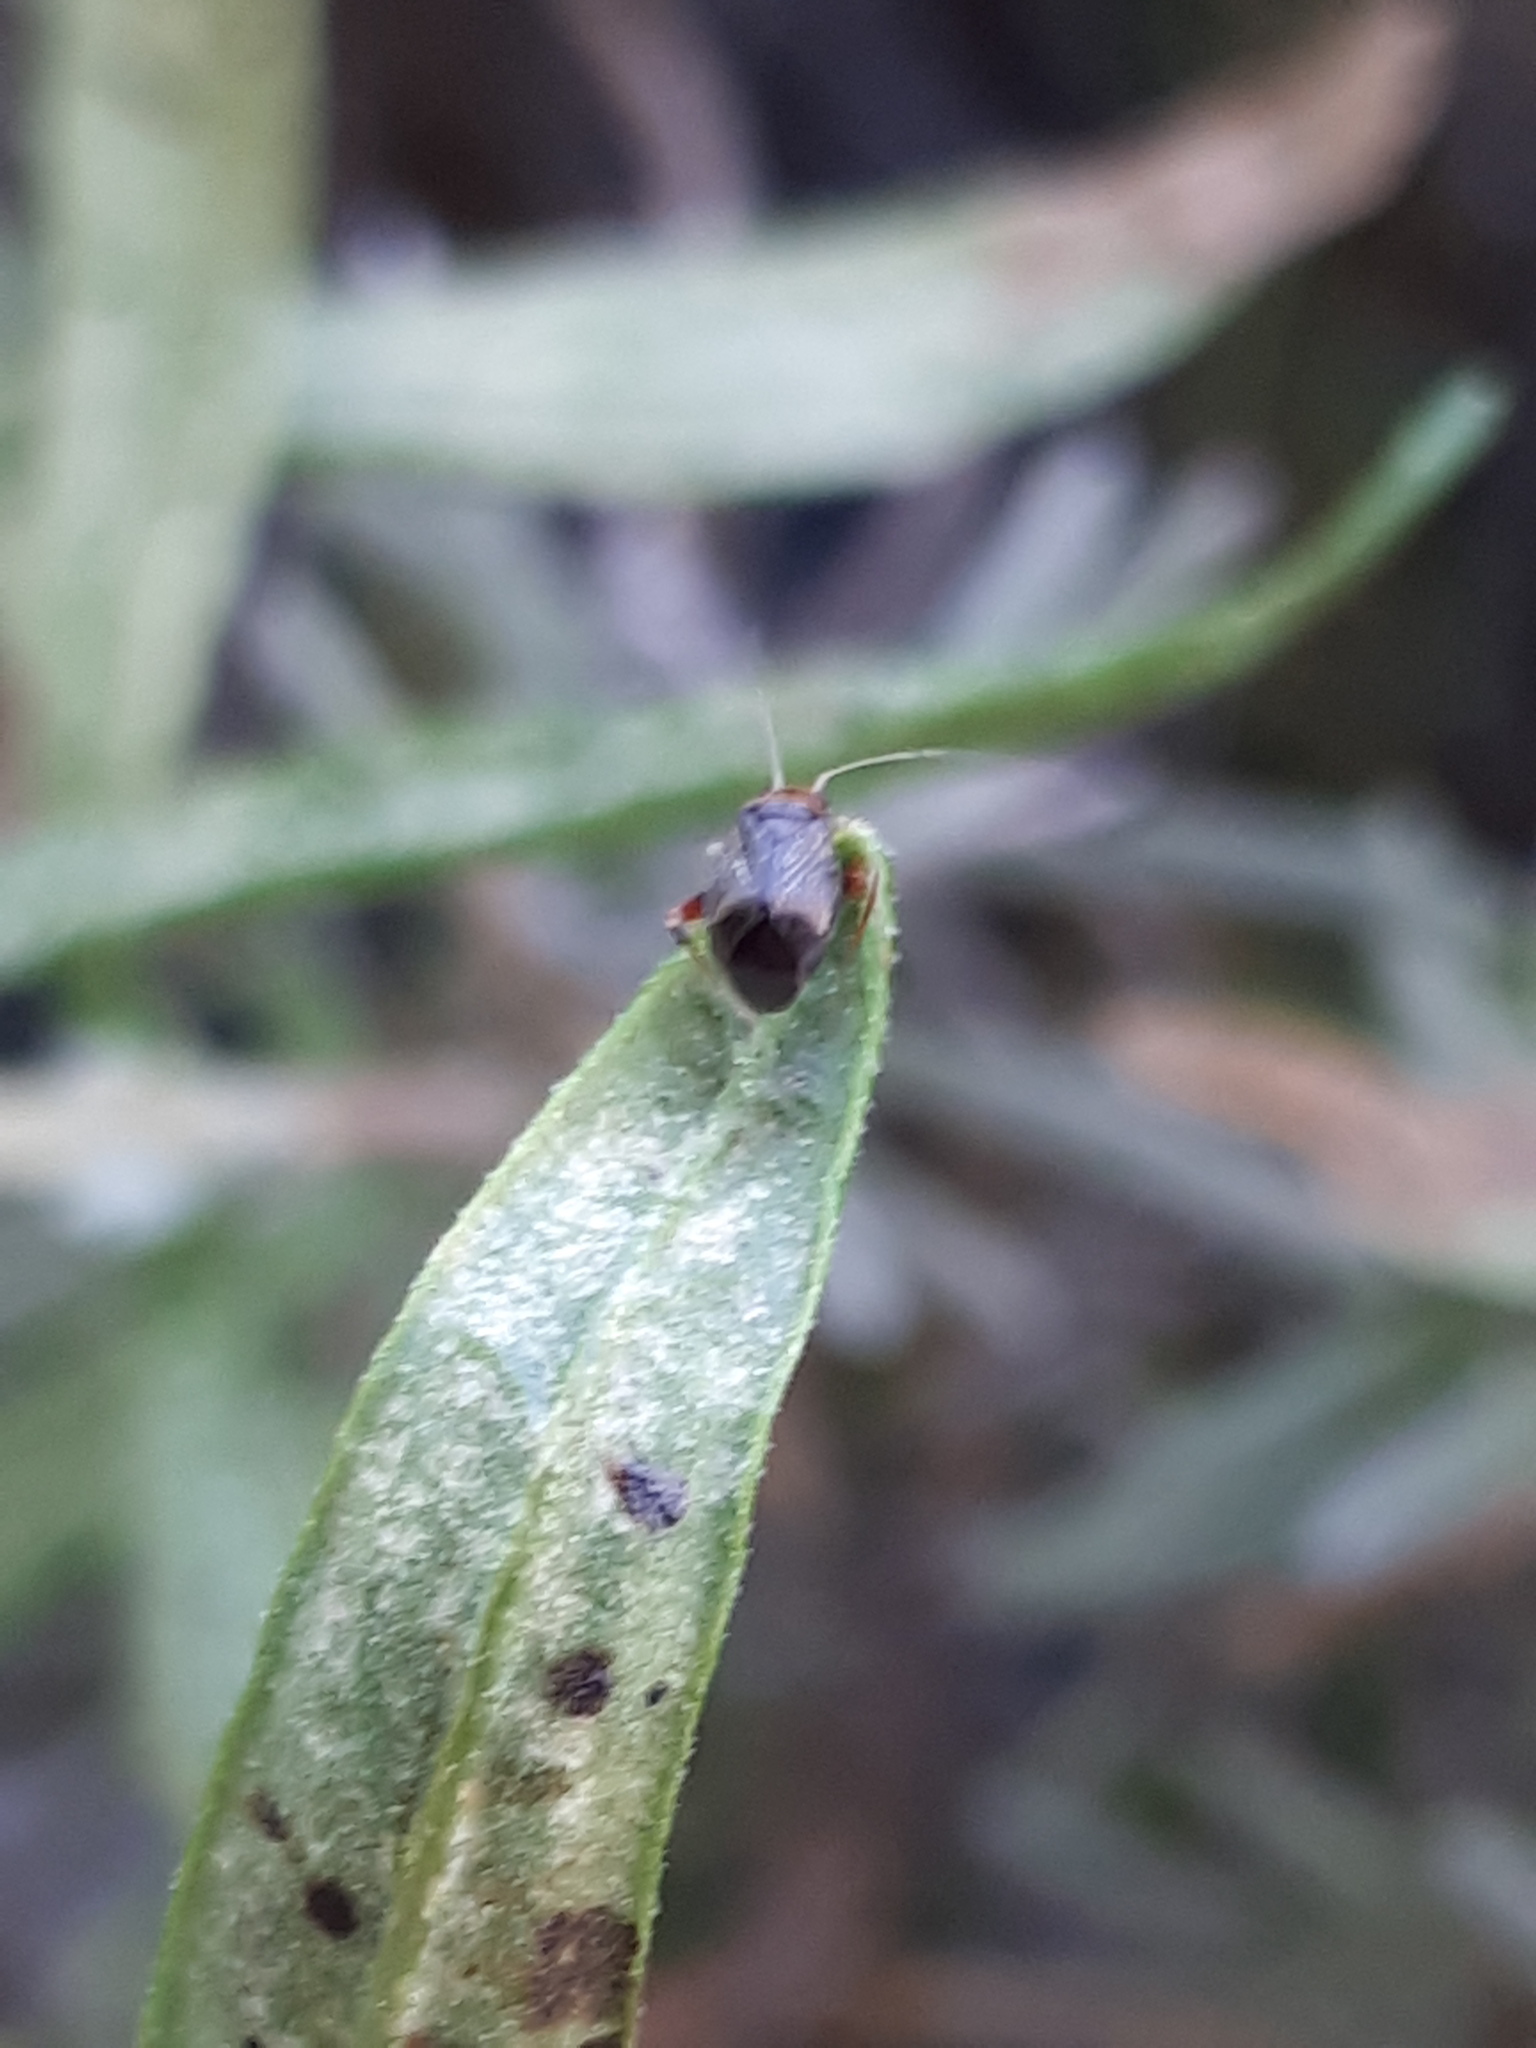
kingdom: Animalia
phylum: Arthropoda
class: Insecta
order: Hemiptera
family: Miridae
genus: Halticus
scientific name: Halticus luteicollis
